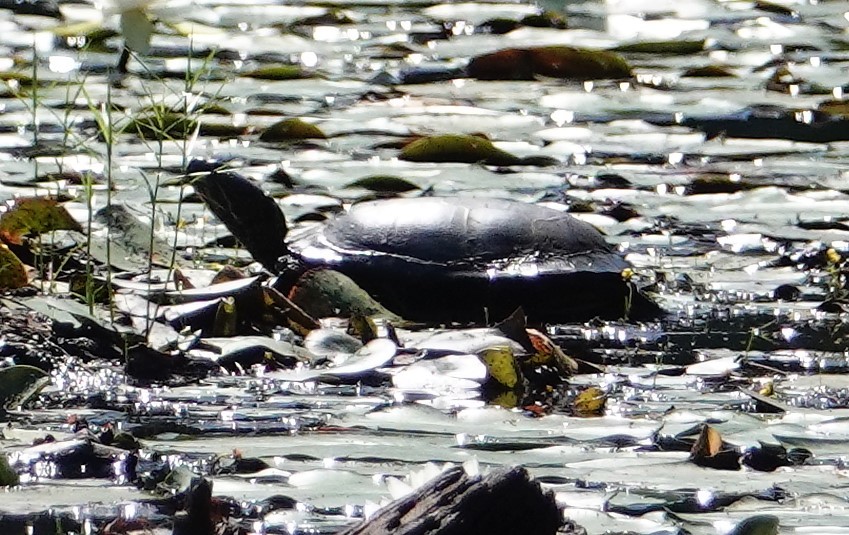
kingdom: Animalia
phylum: Chordata
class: Testudines
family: Emydidae
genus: Chrysemys
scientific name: Chrysemys picta
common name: Painted turtle
